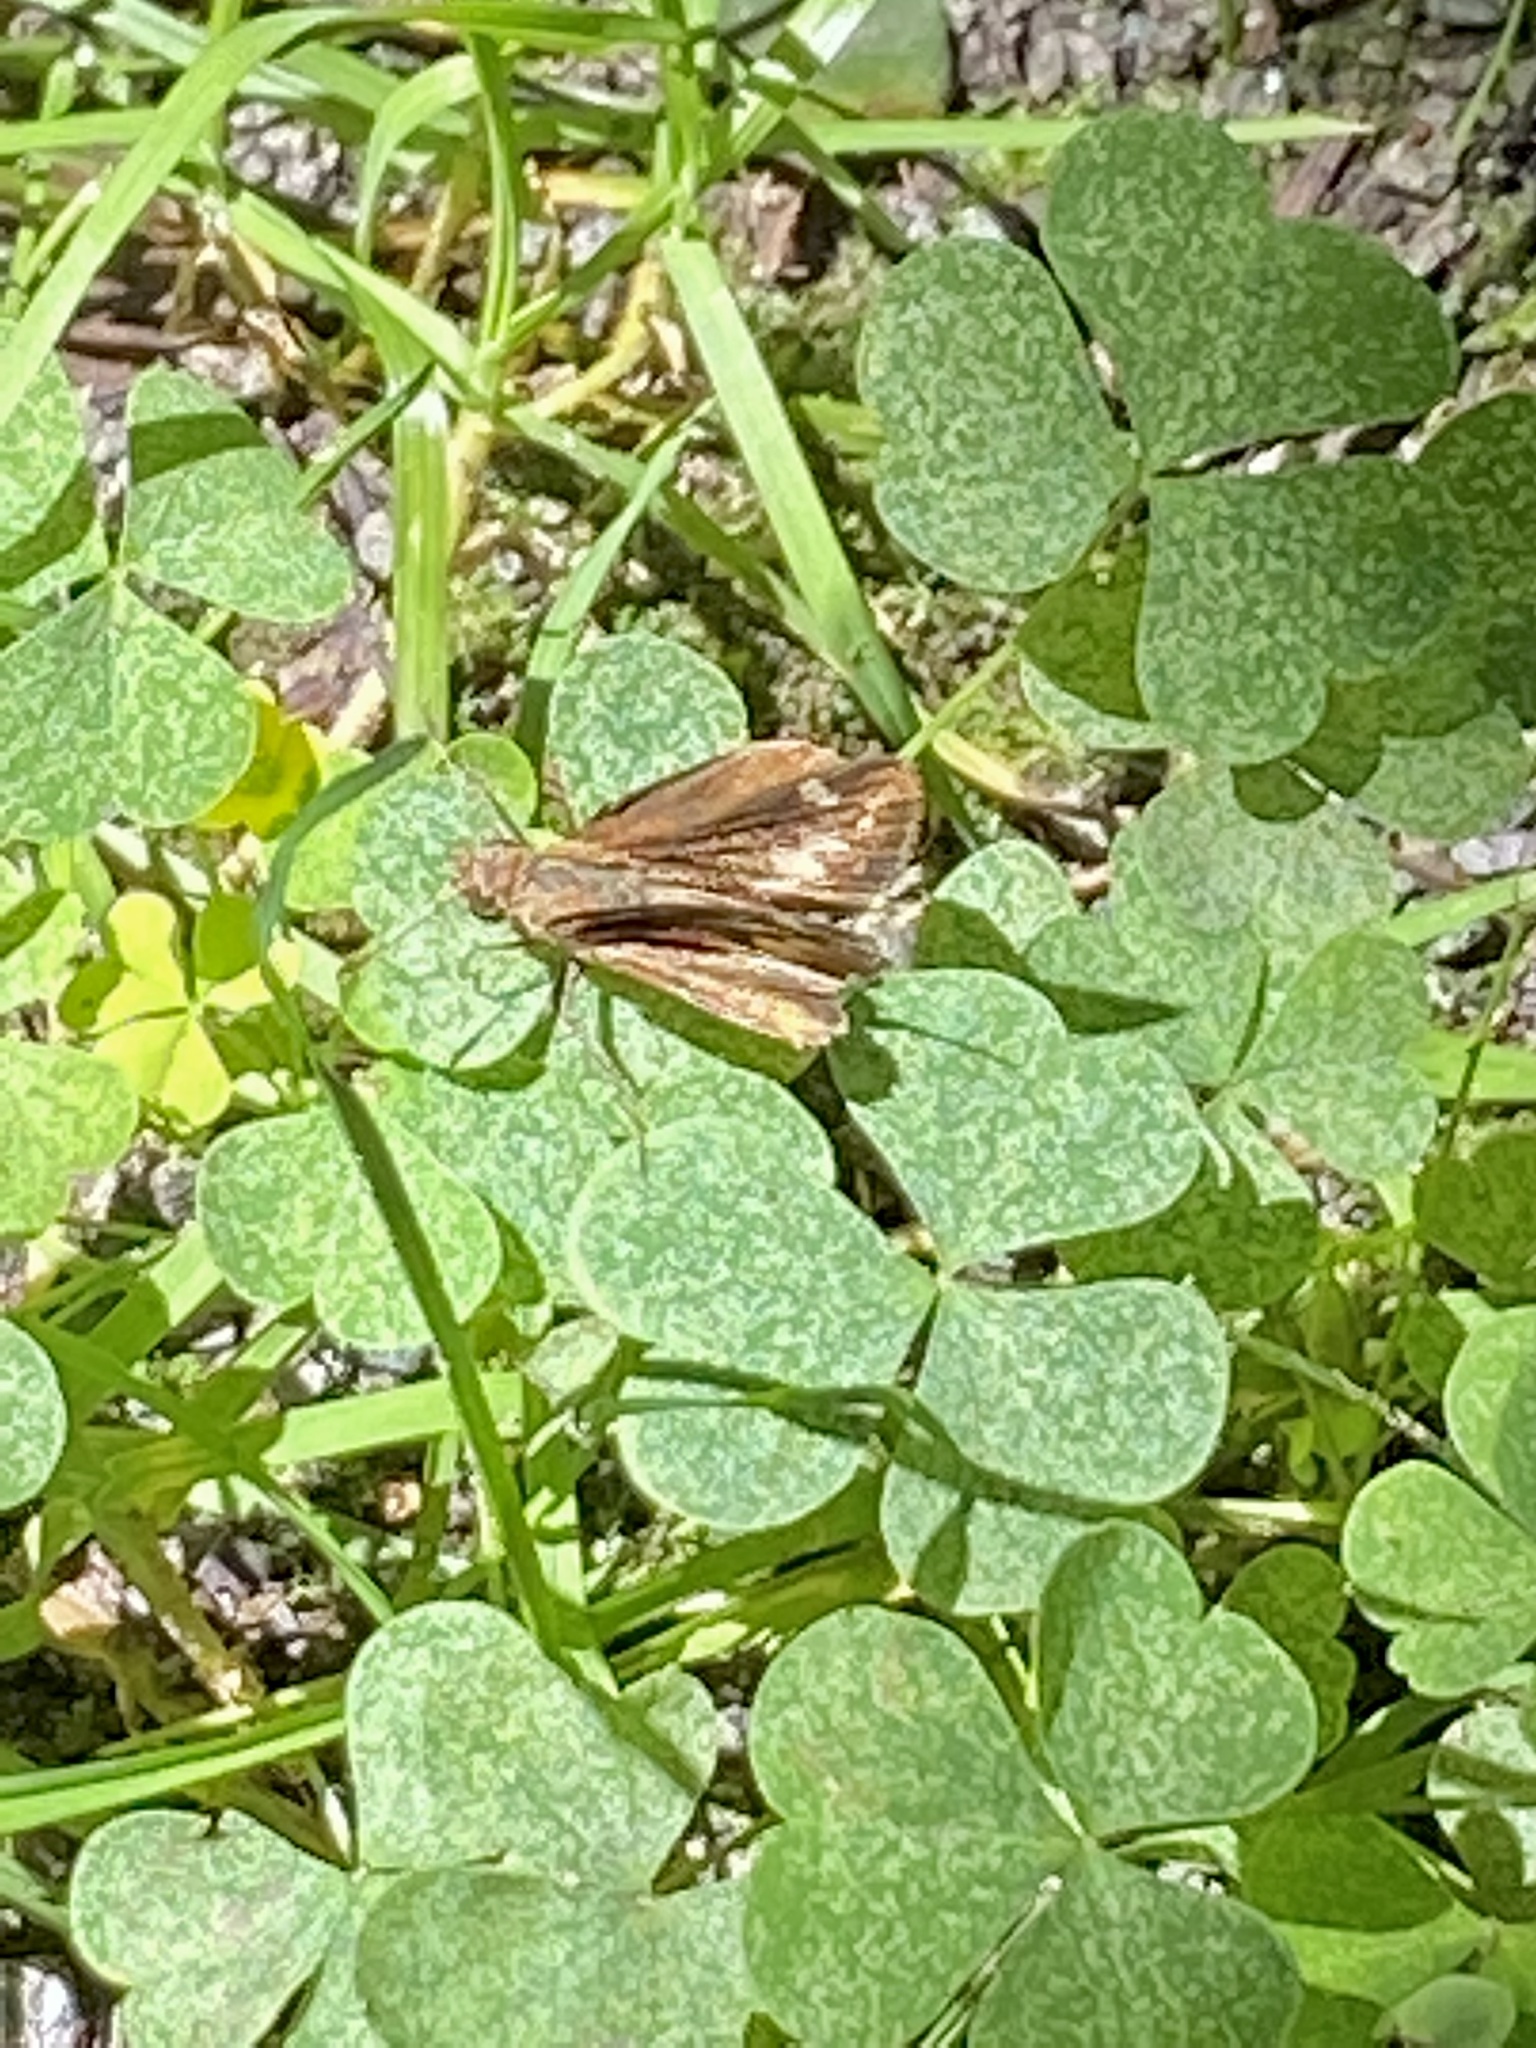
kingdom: Animalia
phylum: Arthropoda
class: Insecta
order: Lepidoptera
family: Hesperiidae
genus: Lon
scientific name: Lon zabulon
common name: Zabulon skipper
